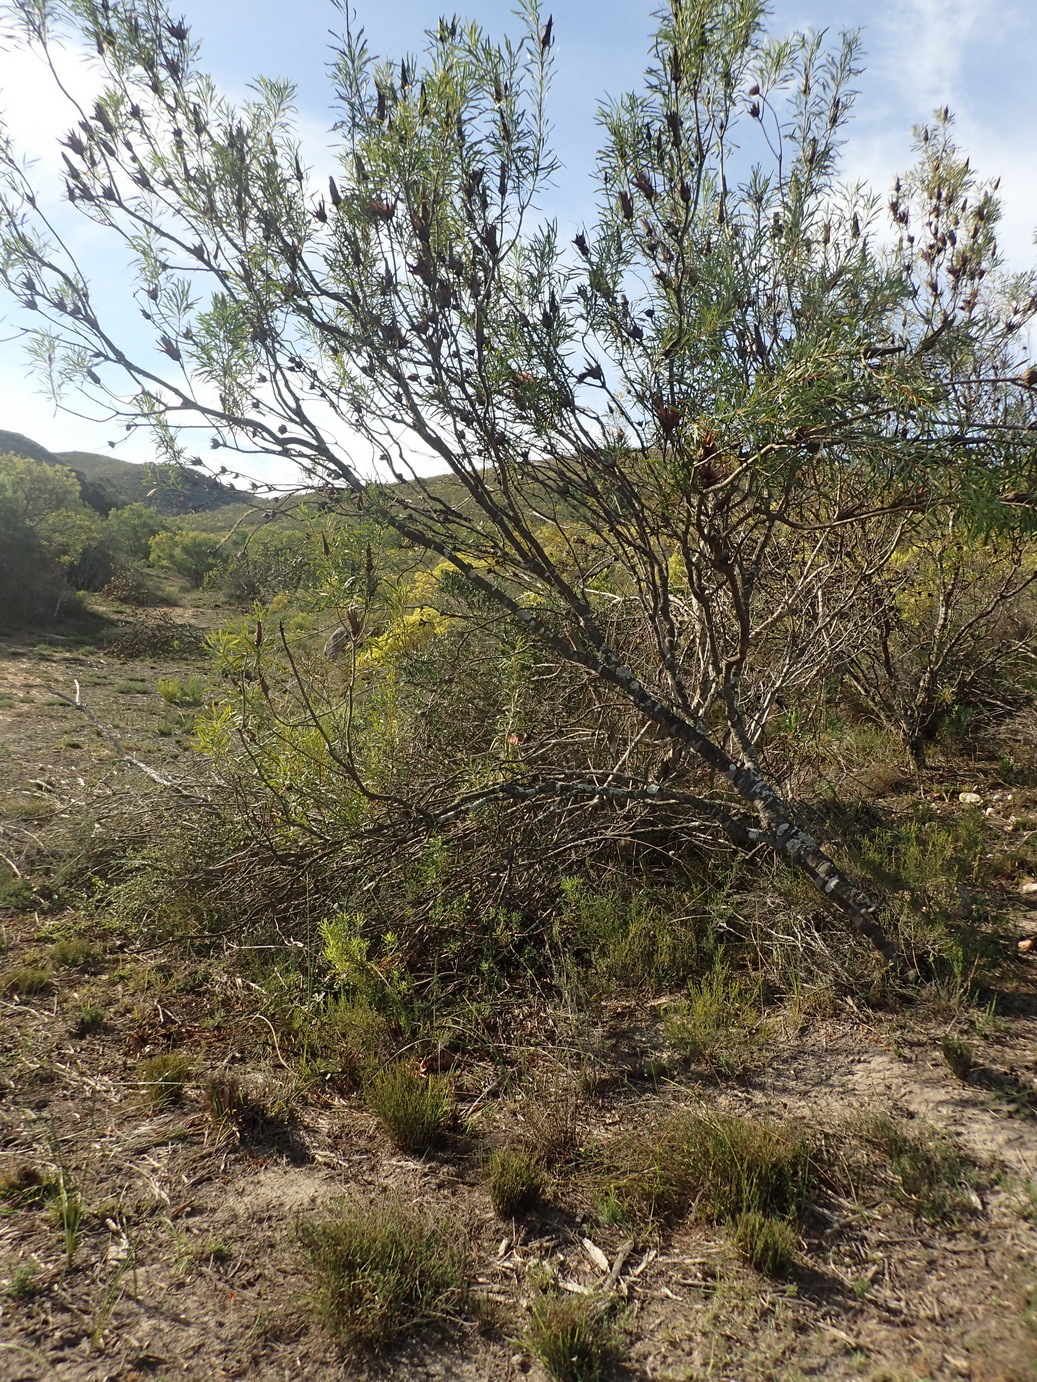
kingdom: Plantae
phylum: Tracheophyta
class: Magnoliopsida
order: Proteales
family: Proteaceae
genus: Protea
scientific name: Protea repens
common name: Sugarbush
